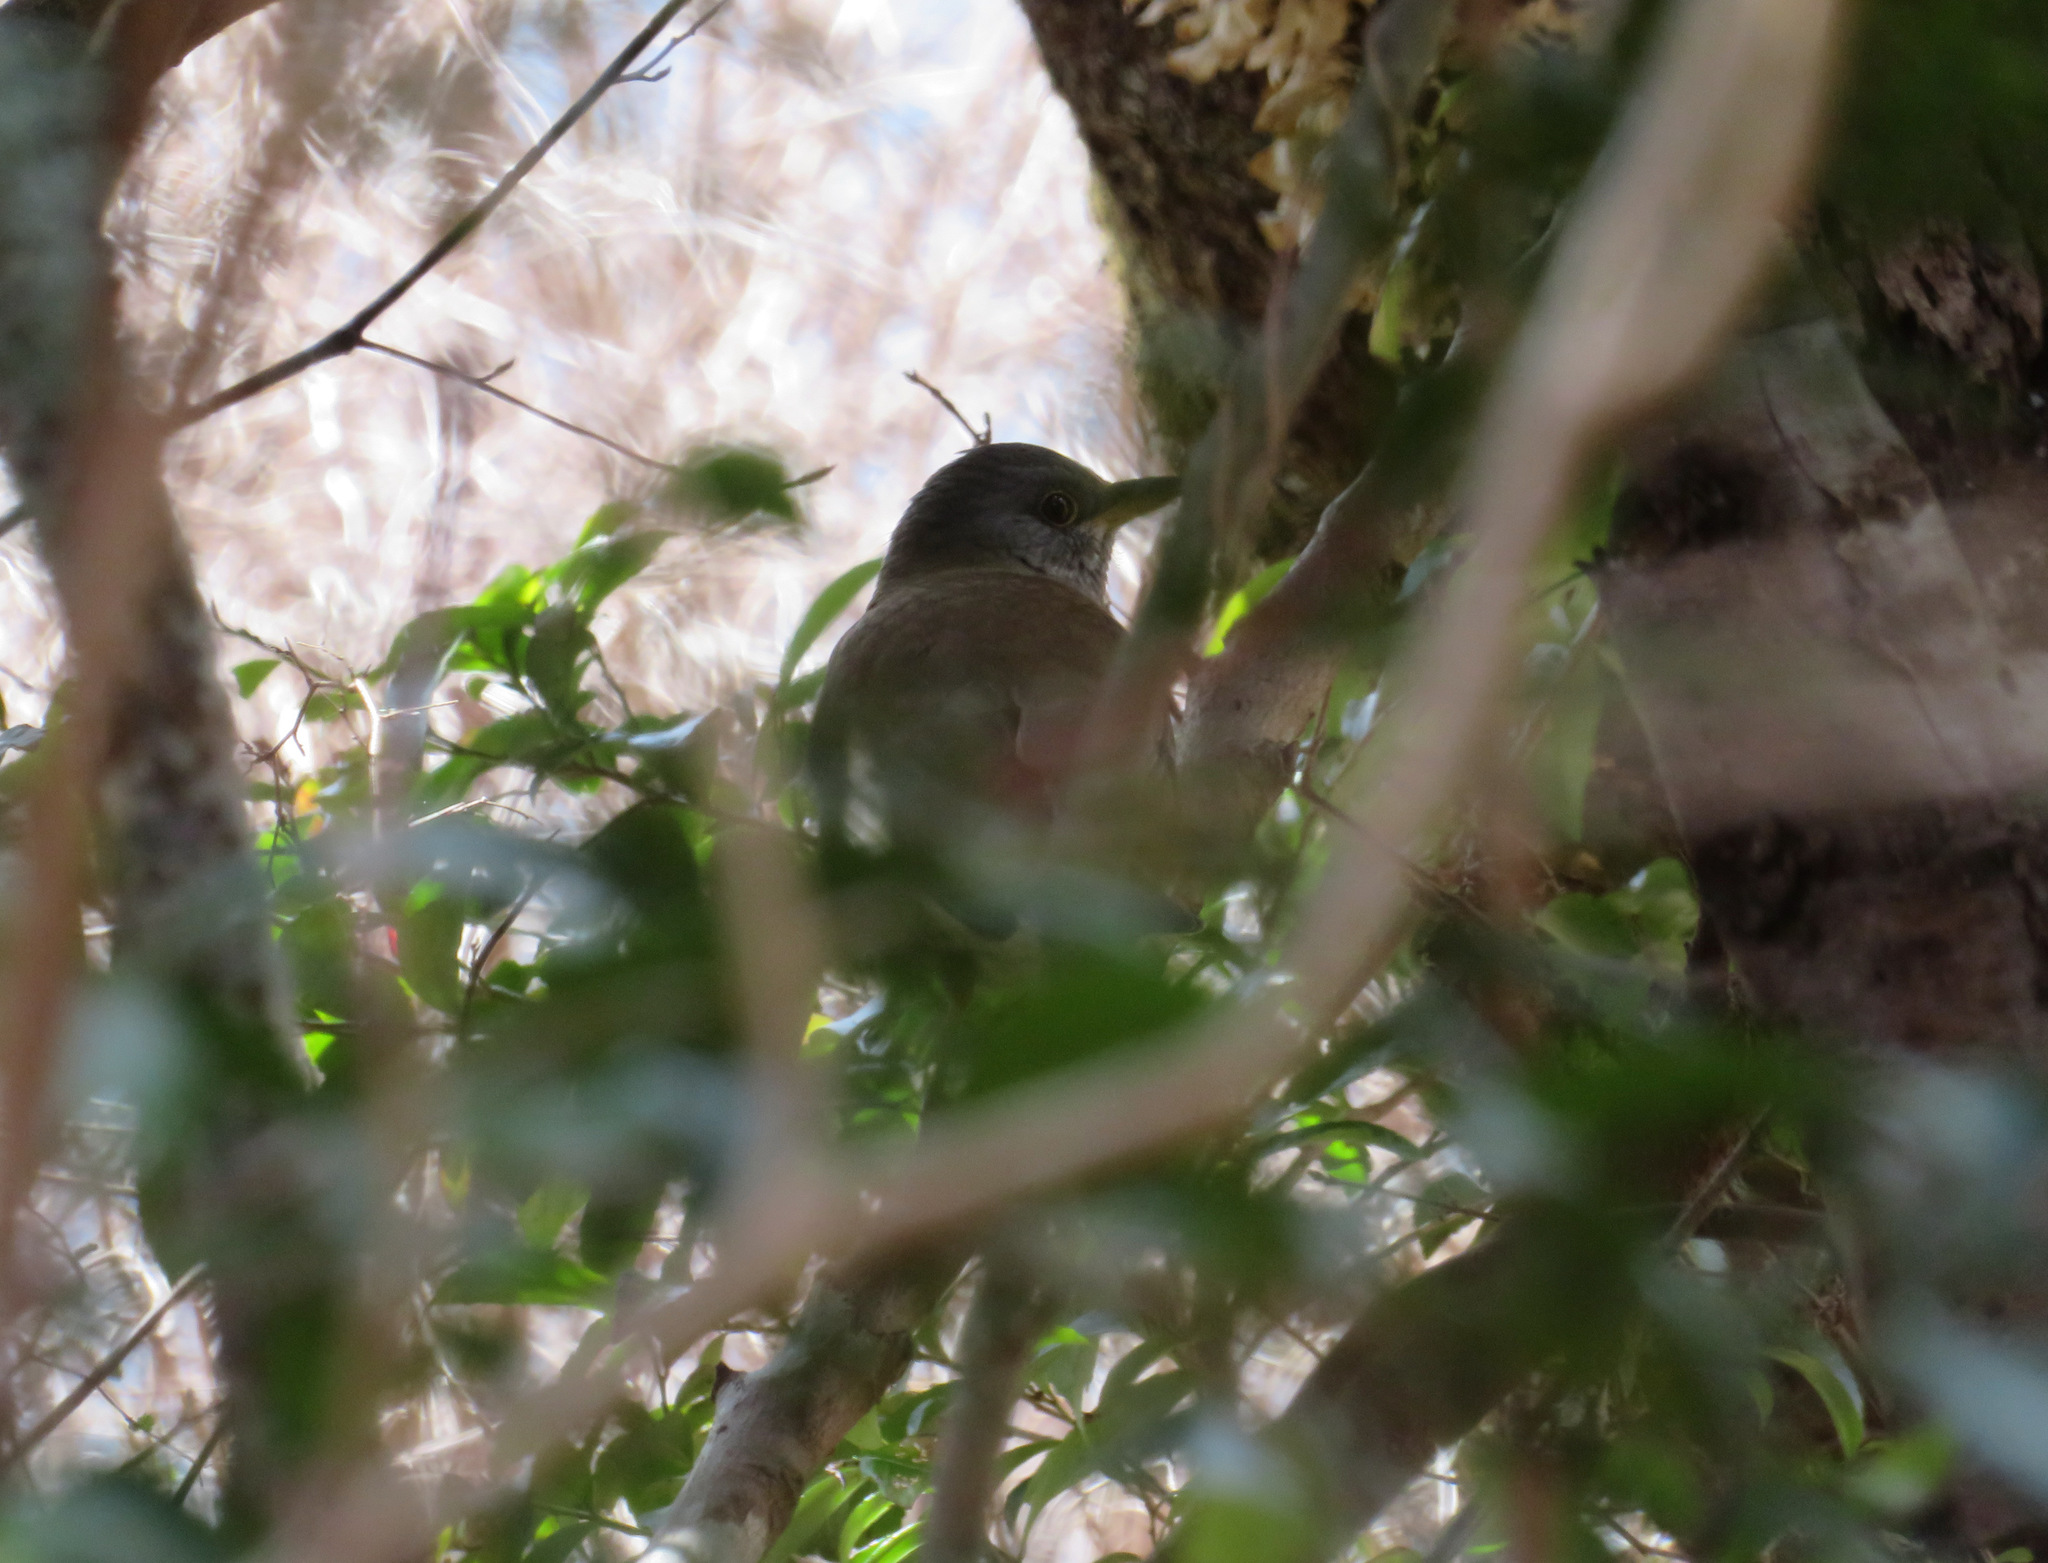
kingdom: Animalia
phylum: Chordata
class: Aves
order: Passeriformes
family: Turdidae
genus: Turdus
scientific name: Turdus pallidus
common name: Pale thrush
